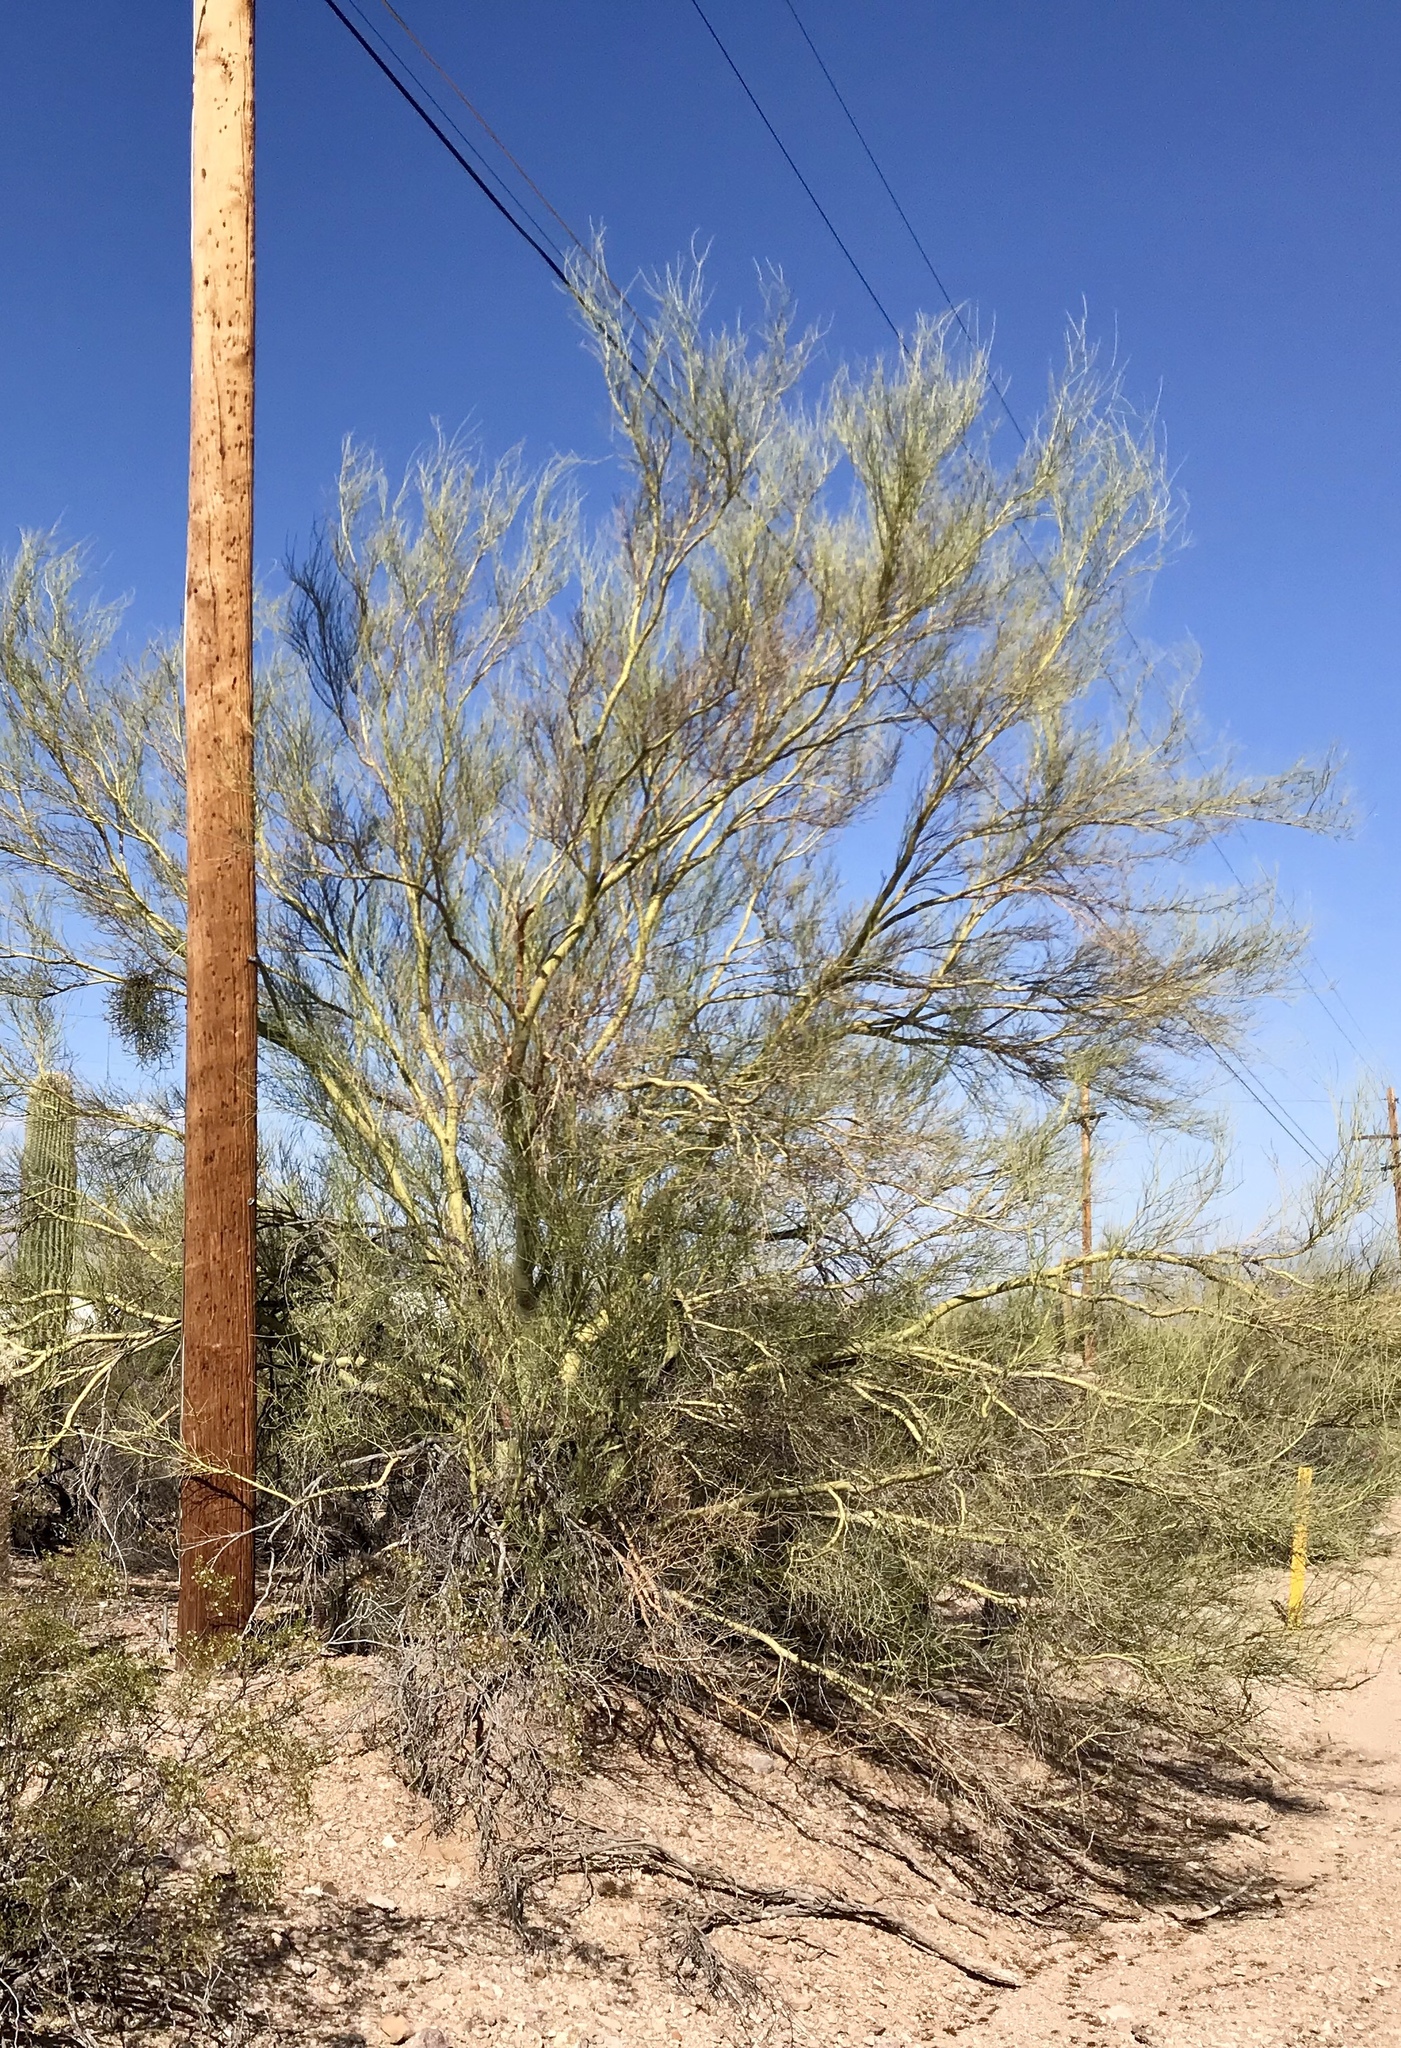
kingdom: Plantae
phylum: Tracheophyta
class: Magnoliopsida
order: Fabales
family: Fabaceae
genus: Parkinsonia
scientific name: Parkinsonia microphylla
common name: Yellow paloverde
